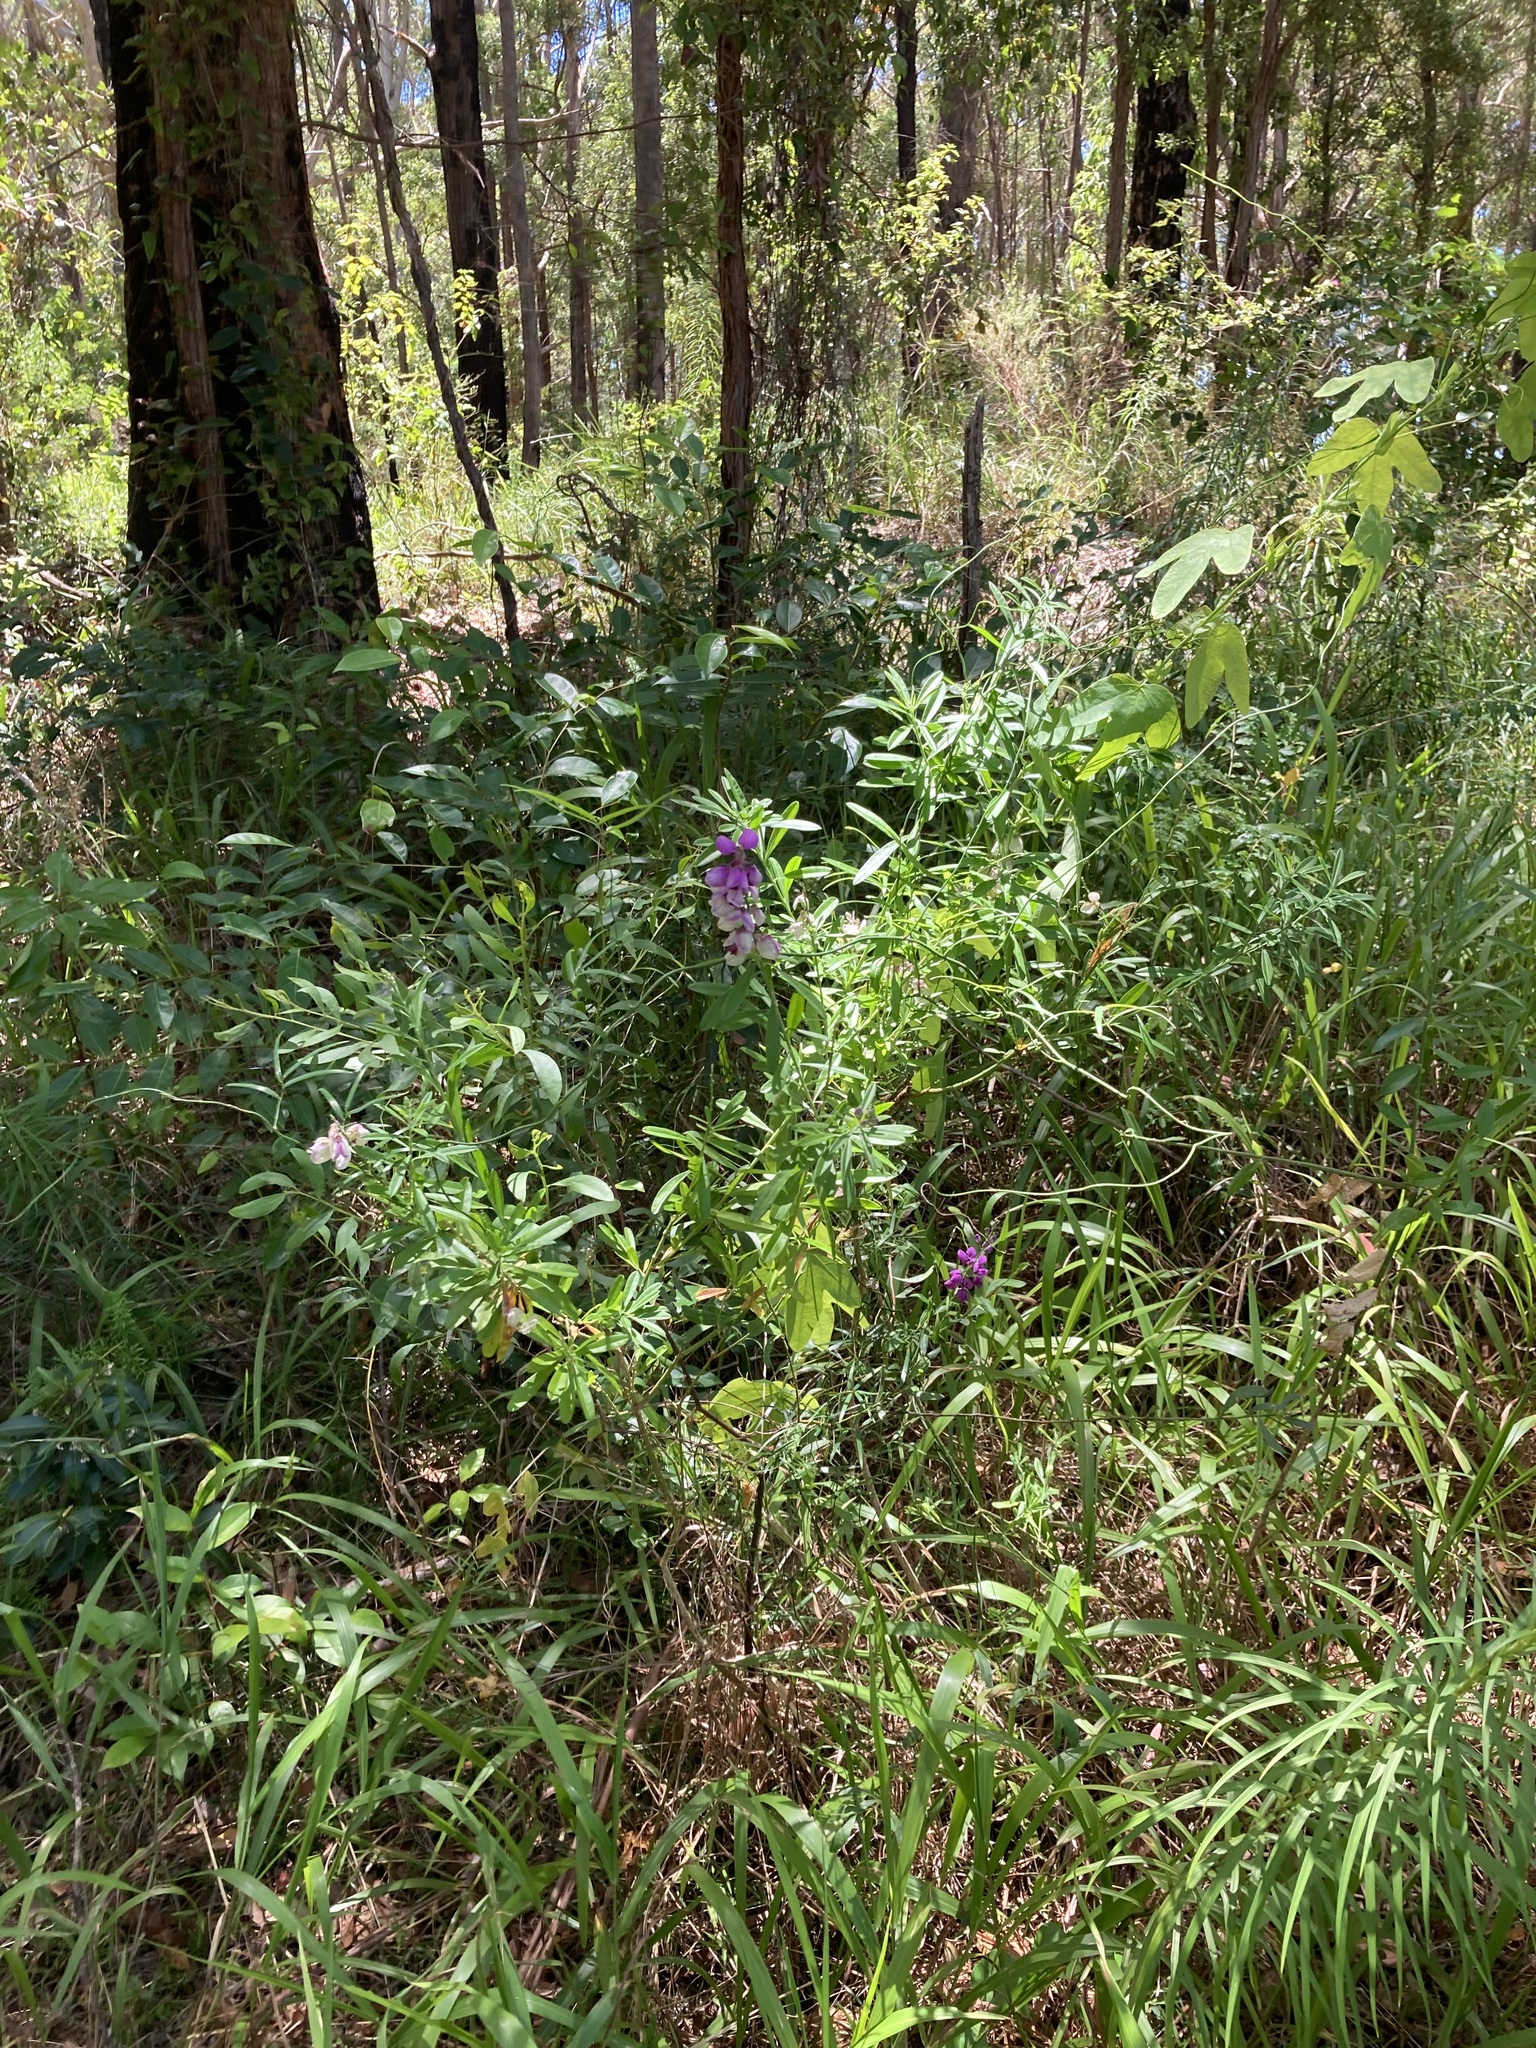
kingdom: Plantae
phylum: Tracheophyta
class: Magnoliopsida
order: Fabales
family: Polygalaceae
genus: Polygala
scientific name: Polygala virgata
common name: Milkwort
